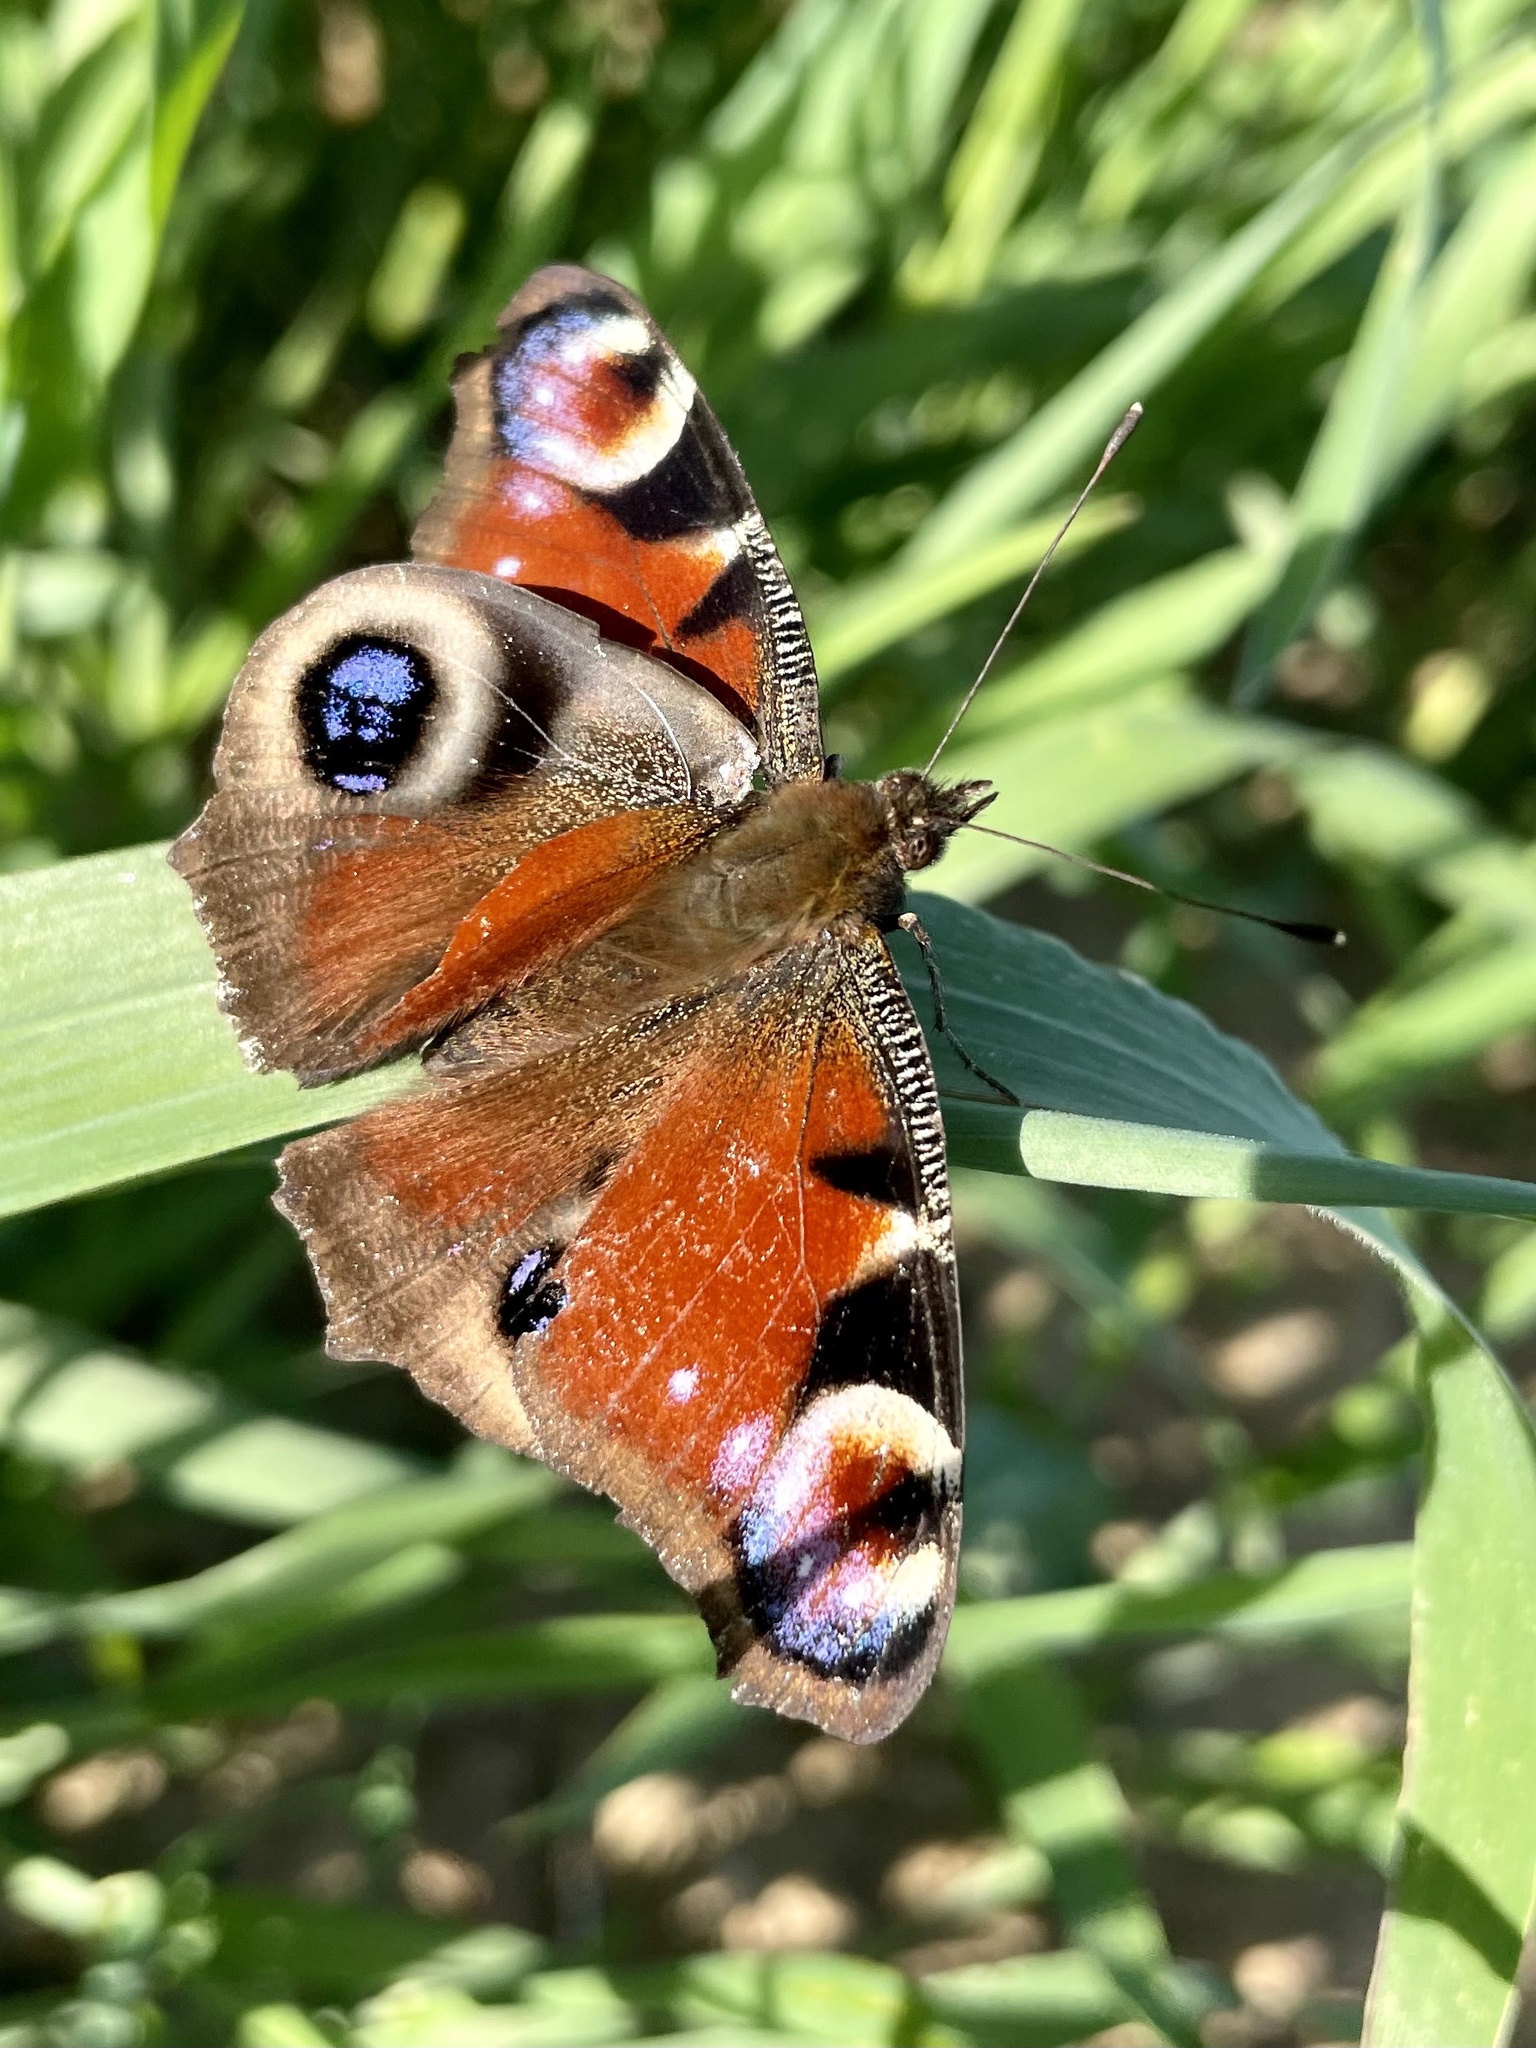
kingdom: Animalia
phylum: Arthropoda
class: Insecta
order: Lepidoptera
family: Nymphalidae
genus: Aglais
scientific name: Aglais io
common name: Peacock
